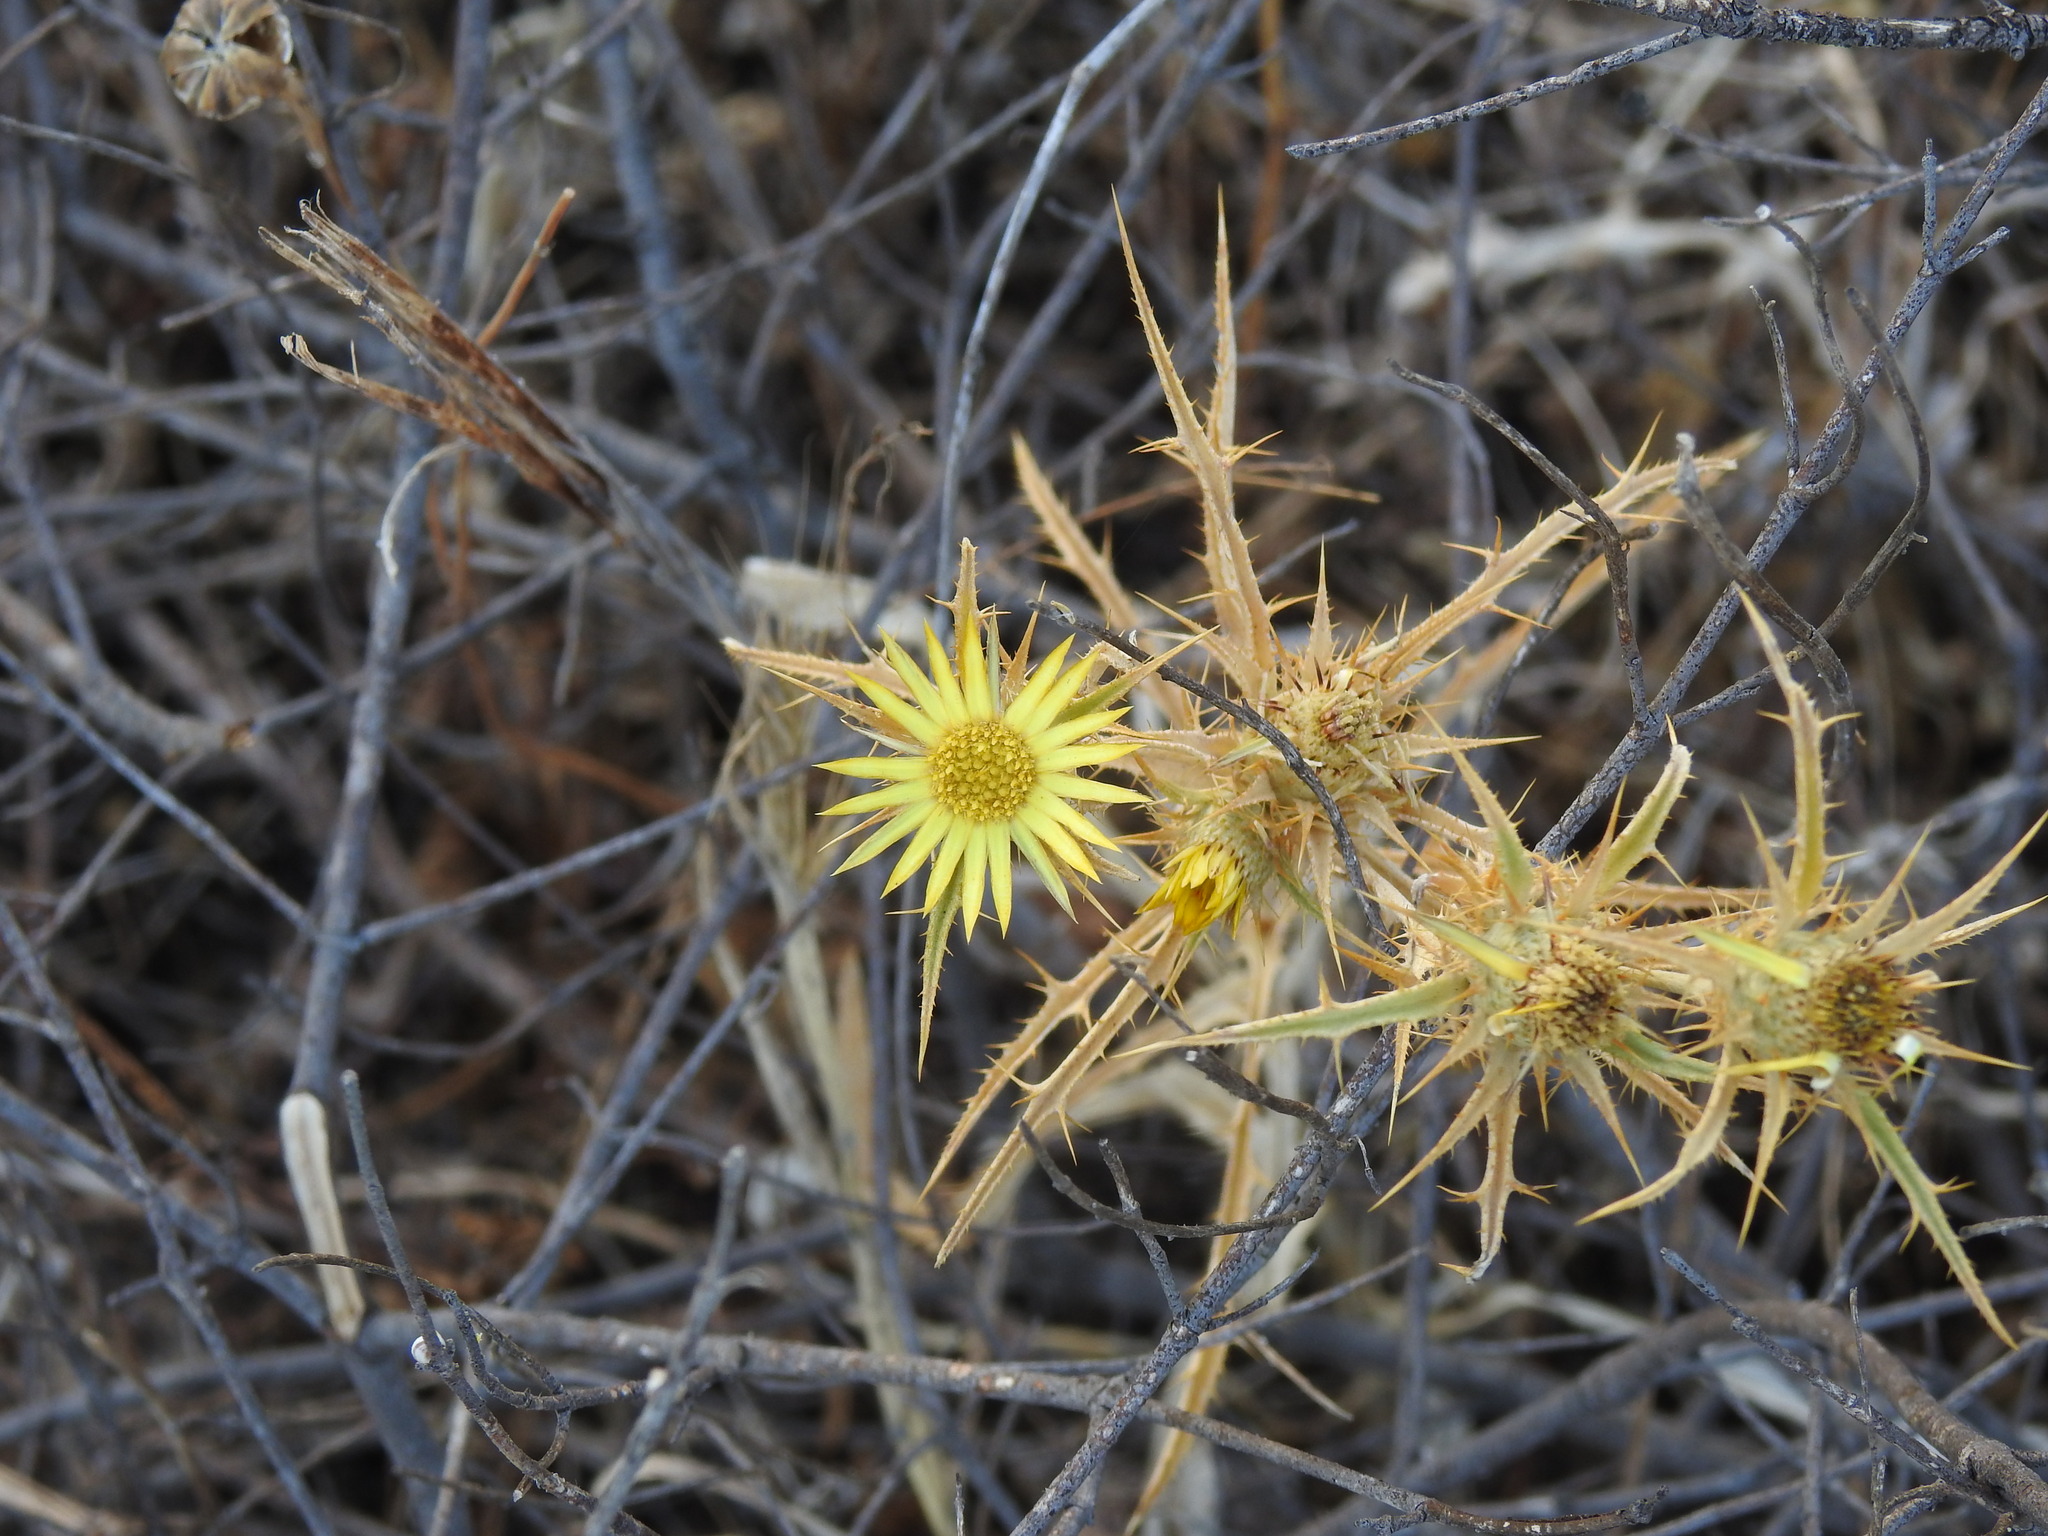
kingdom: Plantae
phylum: Tracheophyta
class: Magnoliopsida
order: Asterales
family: Asteraceae
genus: Carlina
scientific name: Carlina racemosa
